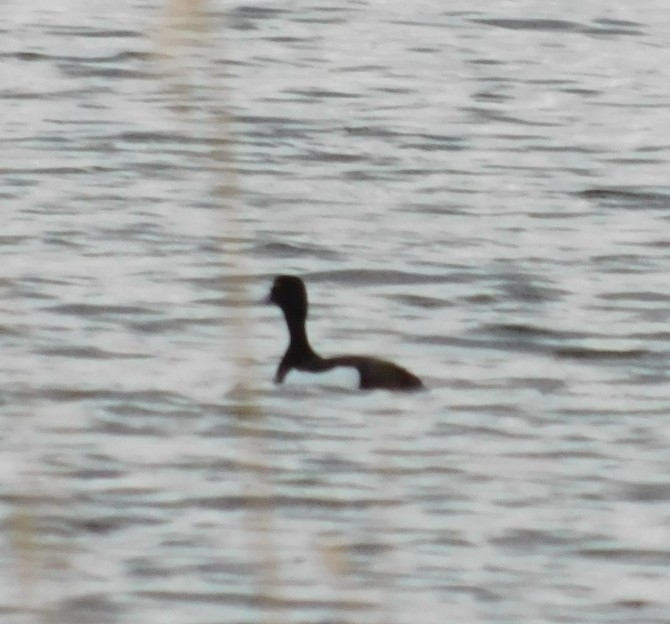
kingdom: Animalia
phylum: Chordata
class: Aves
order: Anseriformes
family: Anatidae
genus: Aythya
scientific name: Aythya fuligula
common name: Tufted duck
